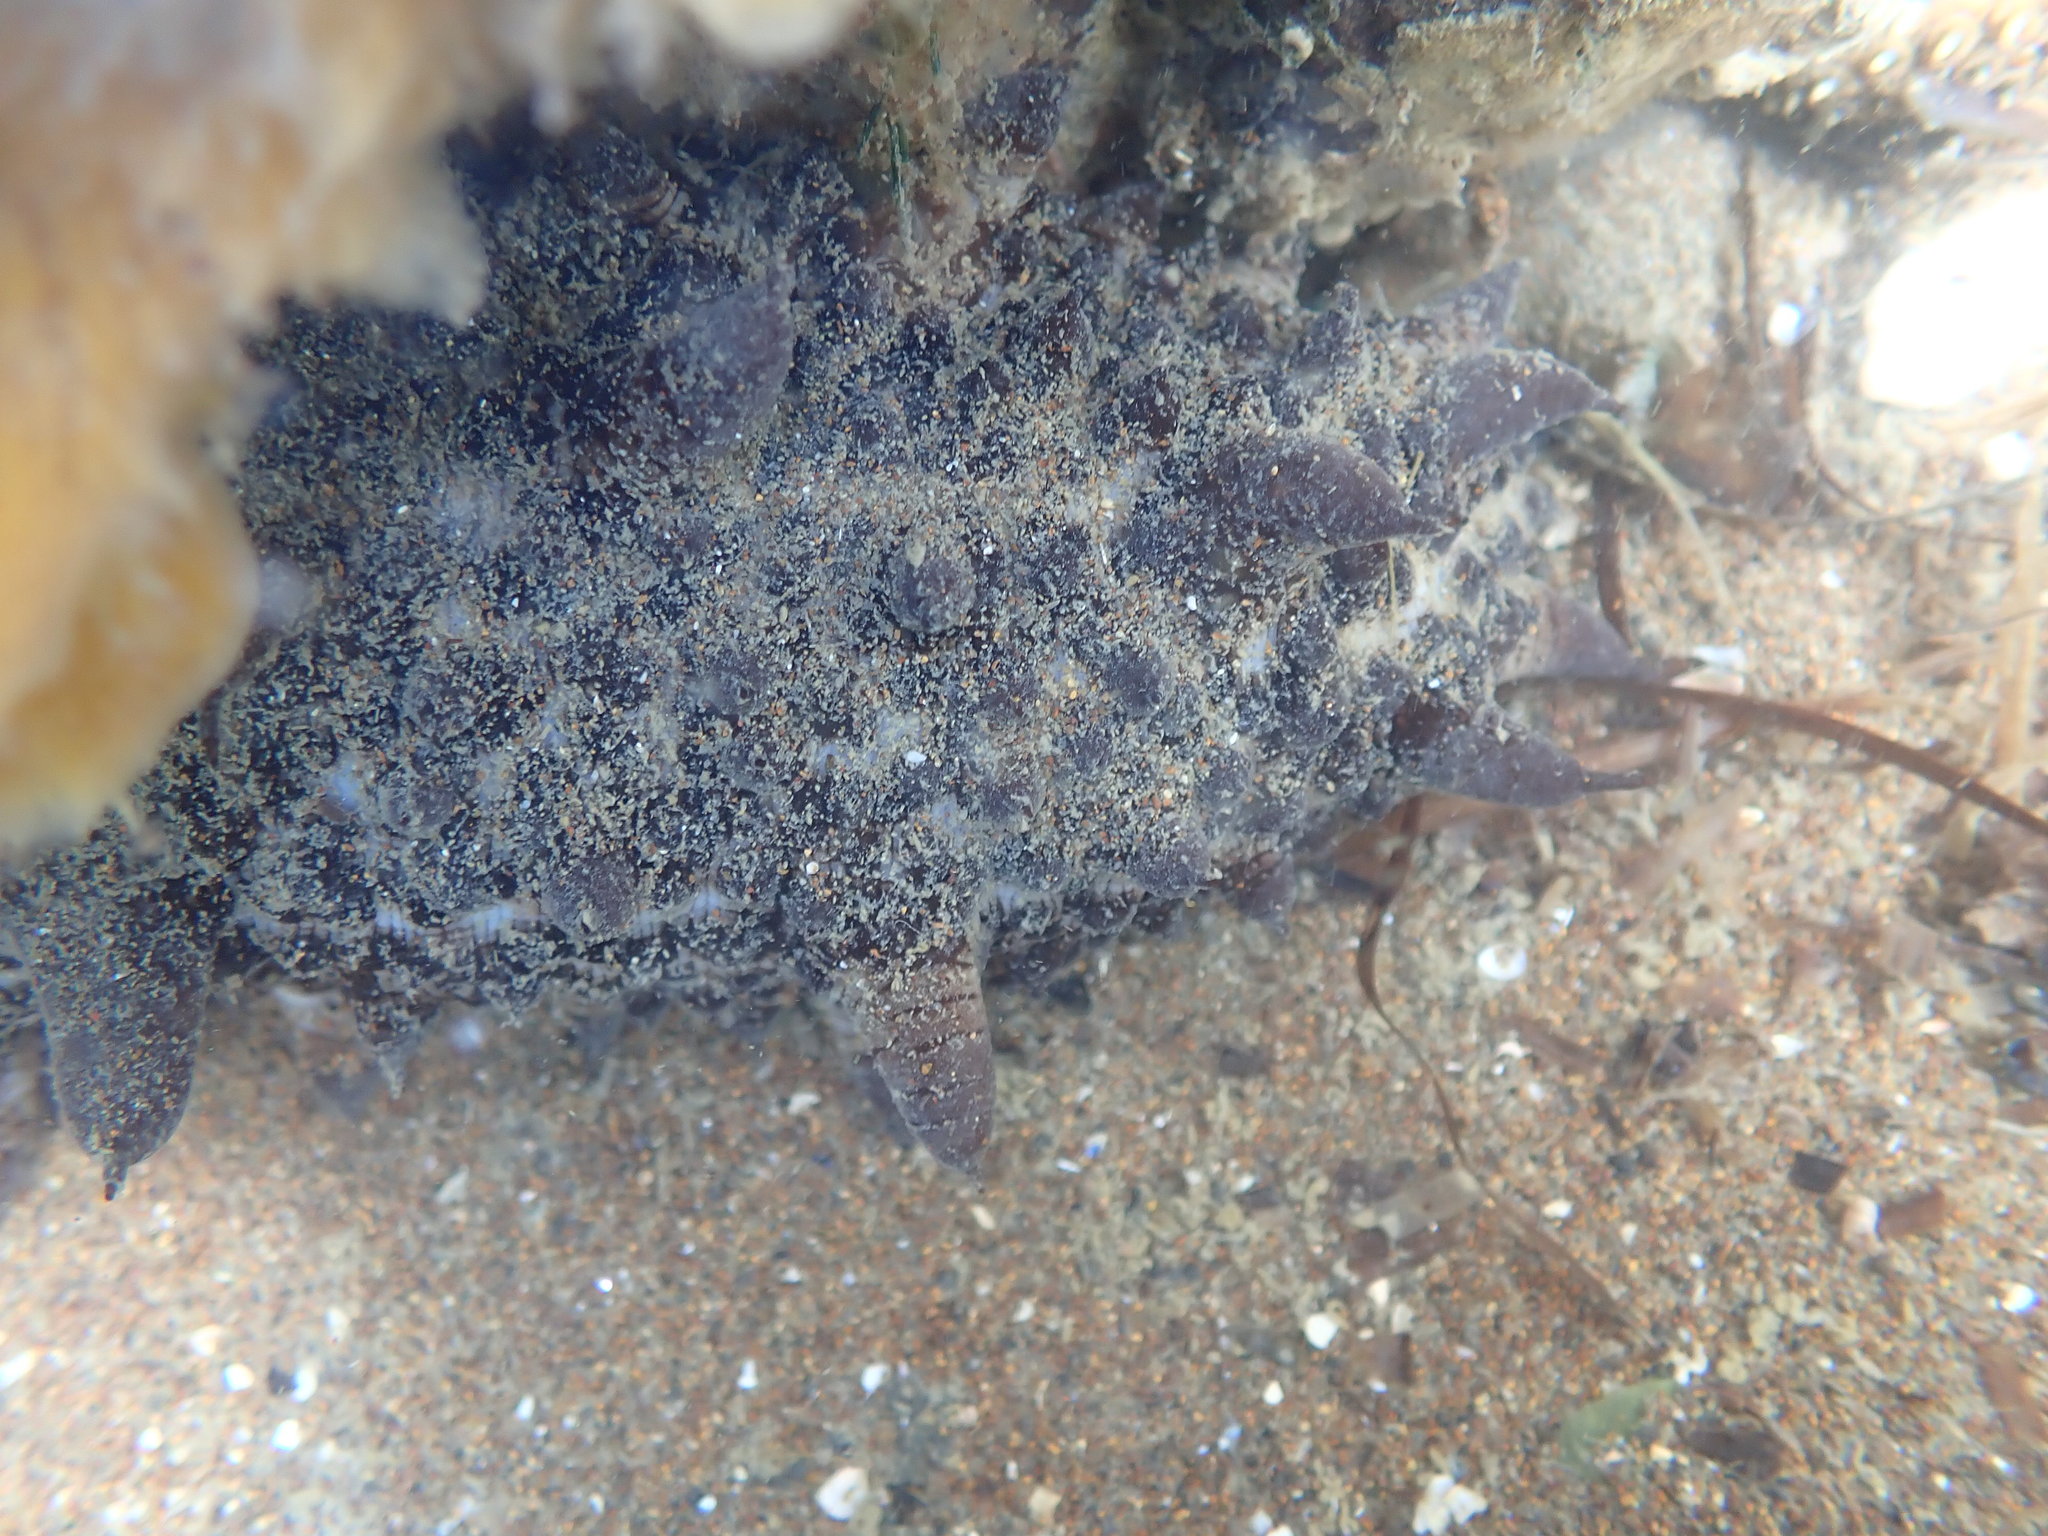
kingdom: Animalia
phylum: Echinodermata
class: Holothuroidea
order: Synallactida
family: Stichopodidae
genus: Australostichopus
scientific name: Australostichopus mollis
